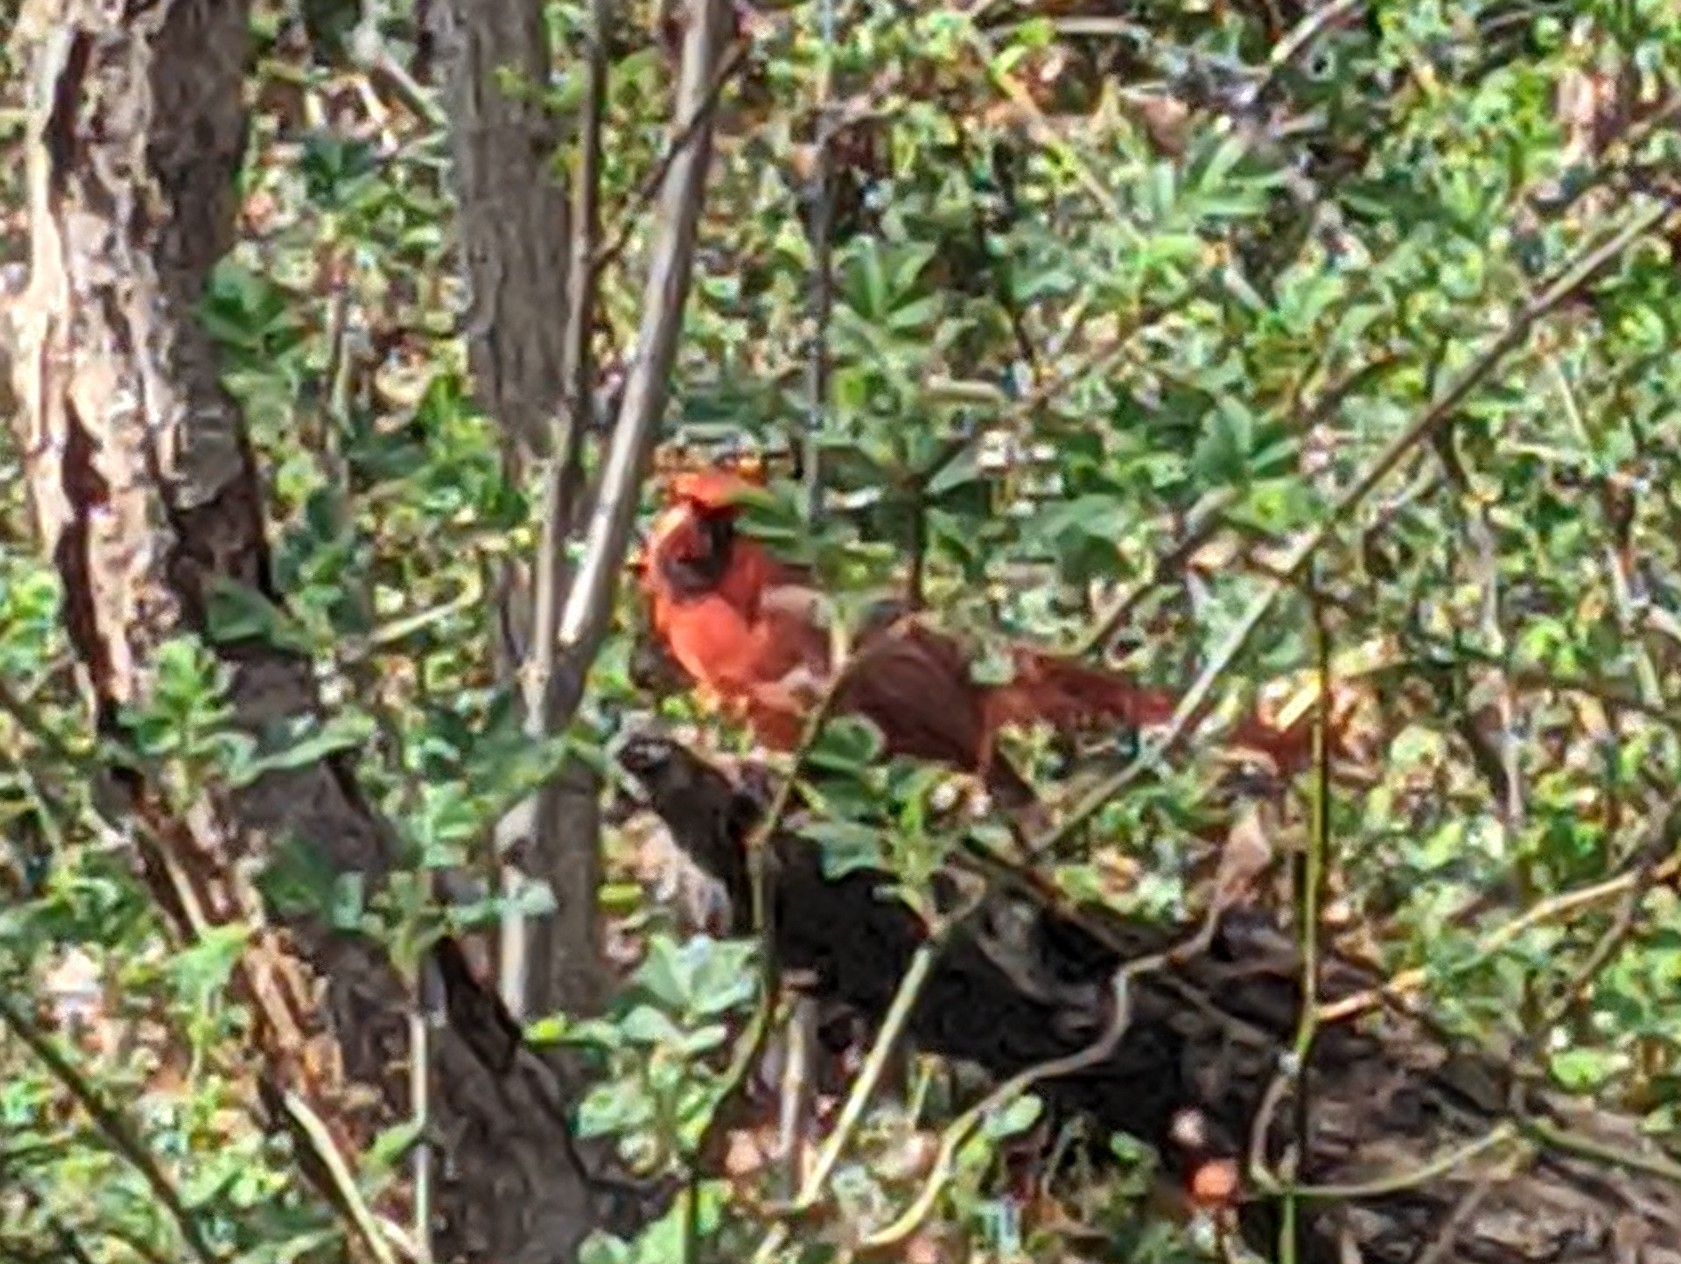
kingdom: Animalia
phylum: Chordata
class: Aves
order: Passeriformes
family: Cardinalidae
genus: Cardinalis
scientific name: Cardinalis cardinalis
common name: Northern cardinal
